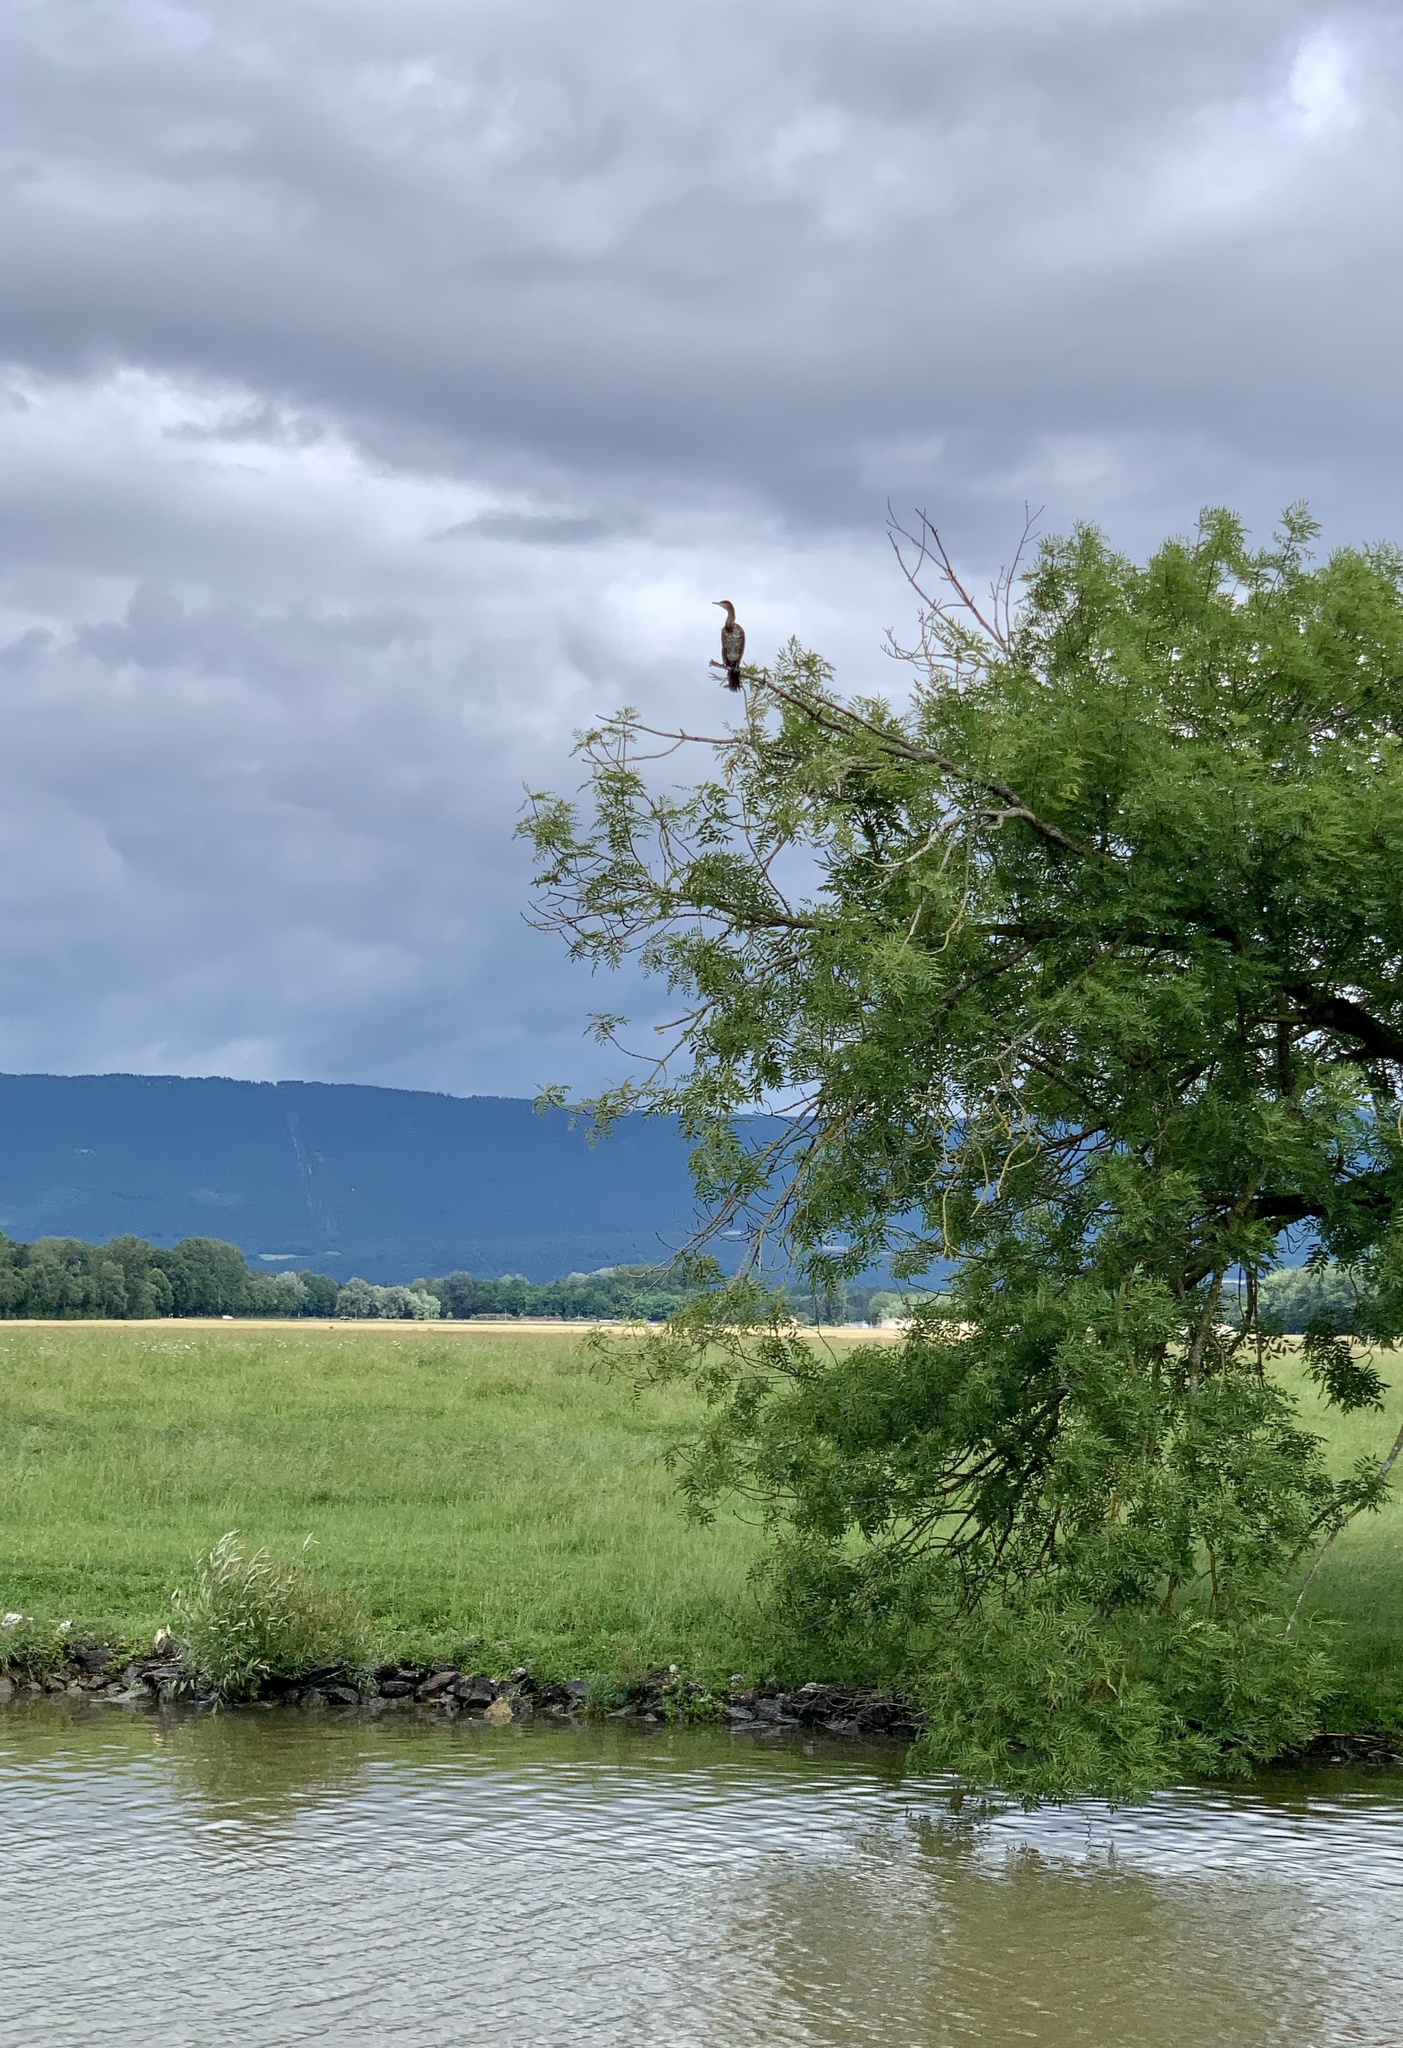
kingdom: Animalia
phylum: Chordata
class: Aves
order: Suliformes
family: Phalacrocoracidae
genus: Phalacrocorax
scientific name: Phalacrocorax carbo
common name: Great cormorant
